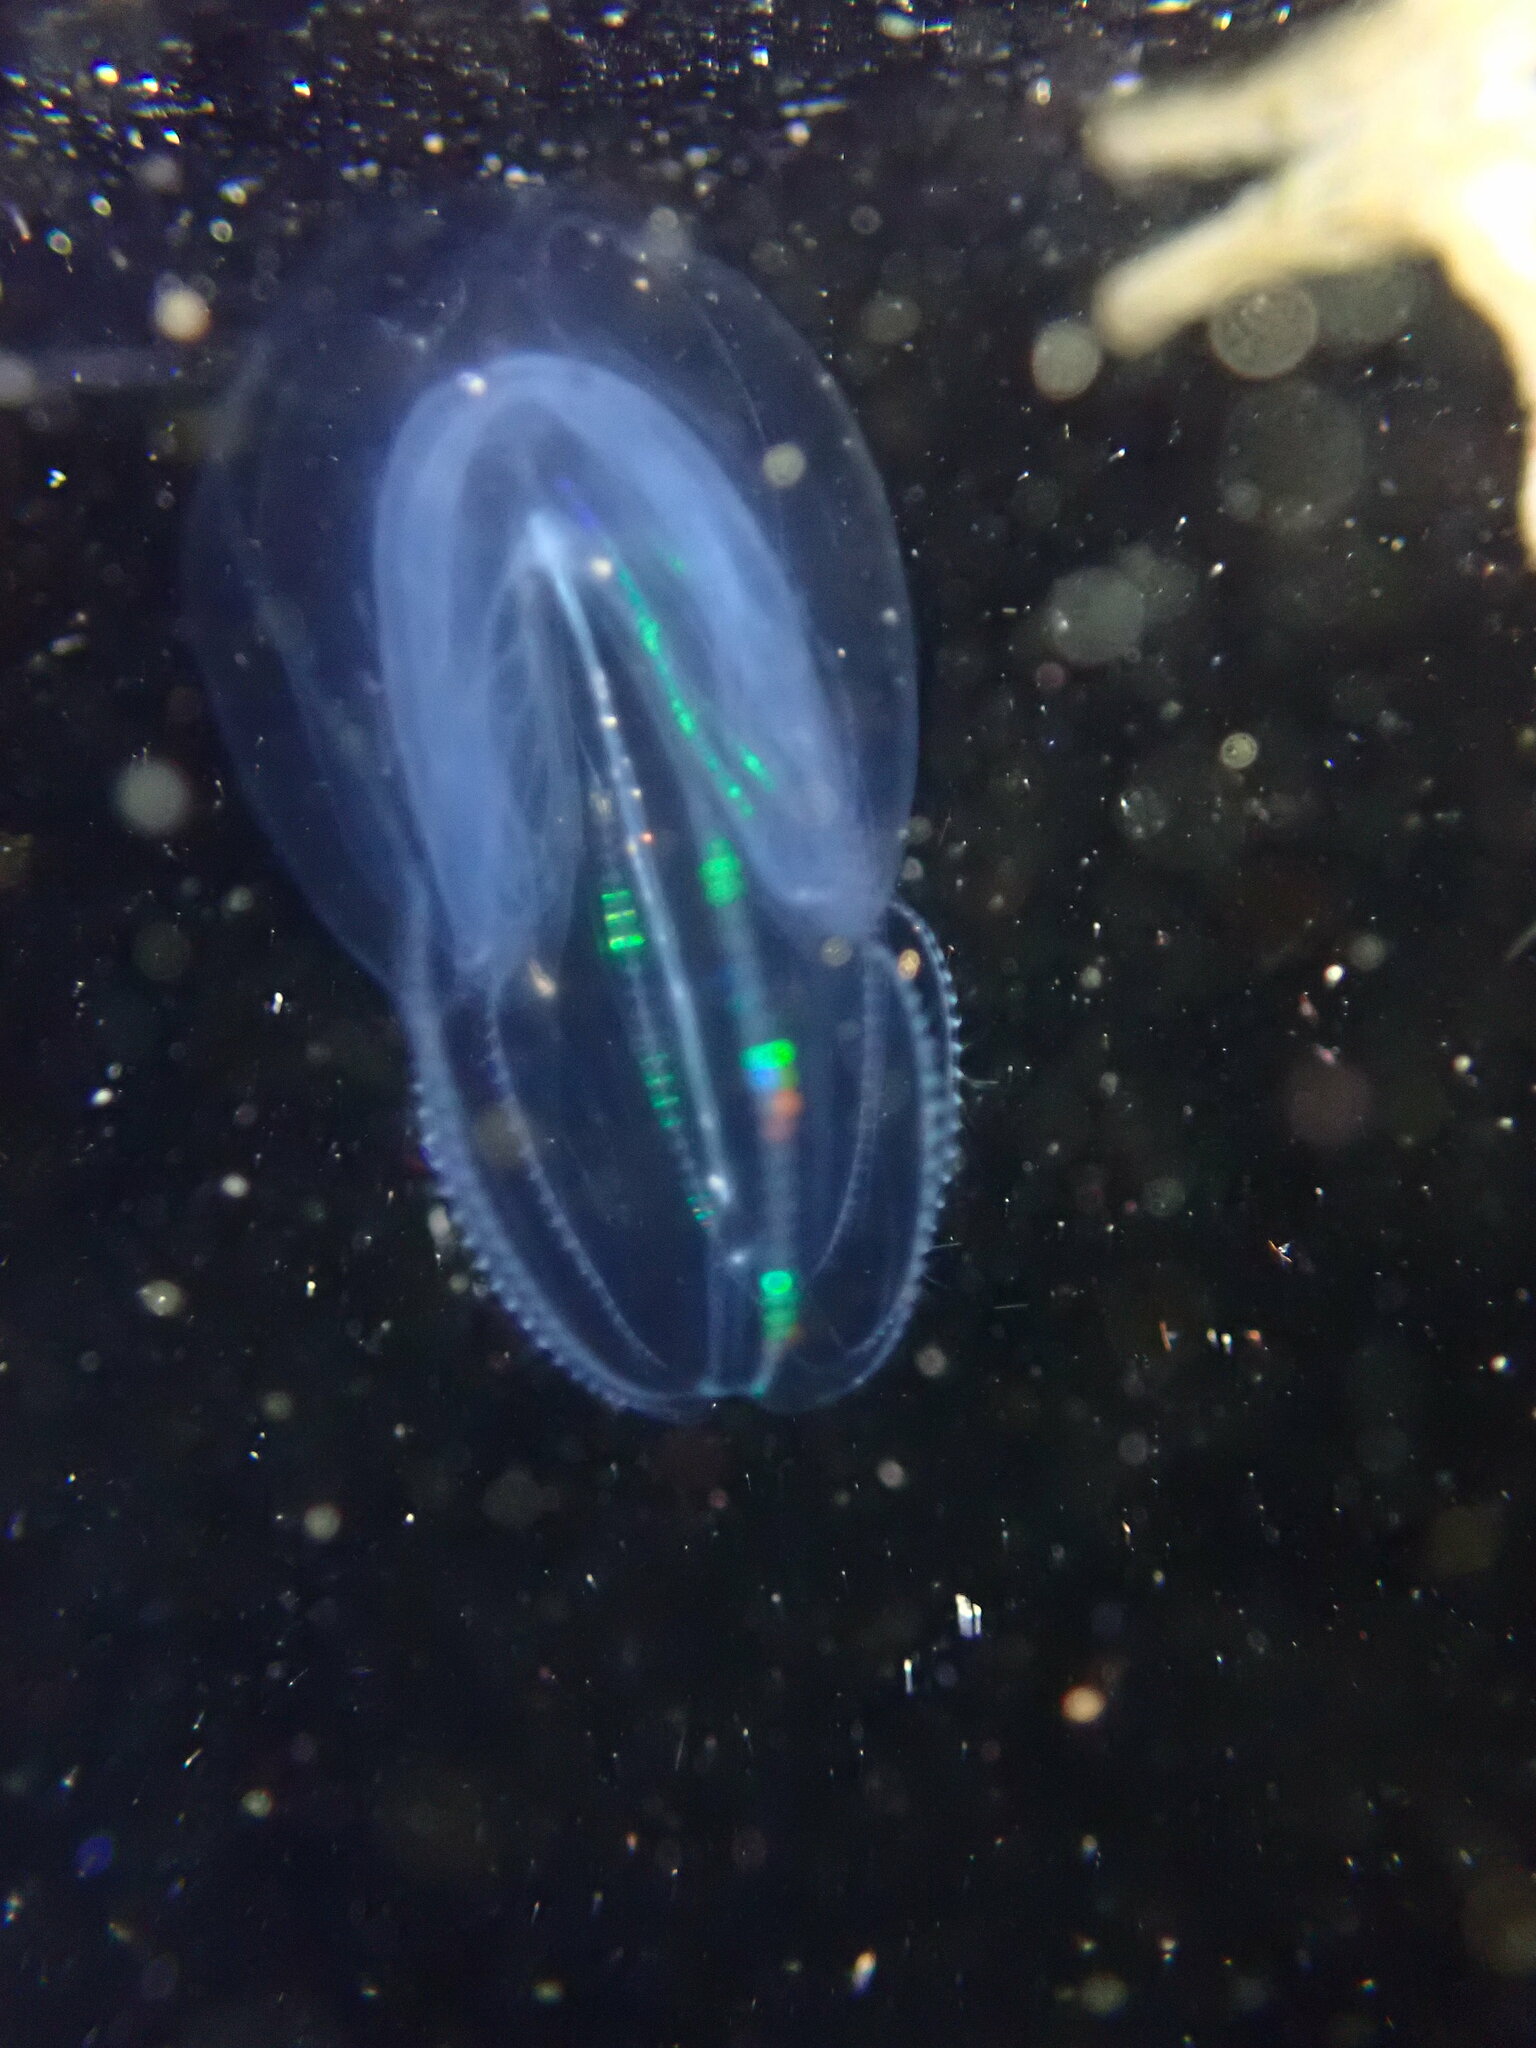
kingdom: Animalia
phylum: Ctenophora
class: Tentaculata
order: Lobata
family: Bolinopsidae
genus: Bolinopsis
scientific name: Bolinopsis microptera
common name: Short-lobed comb jelly
